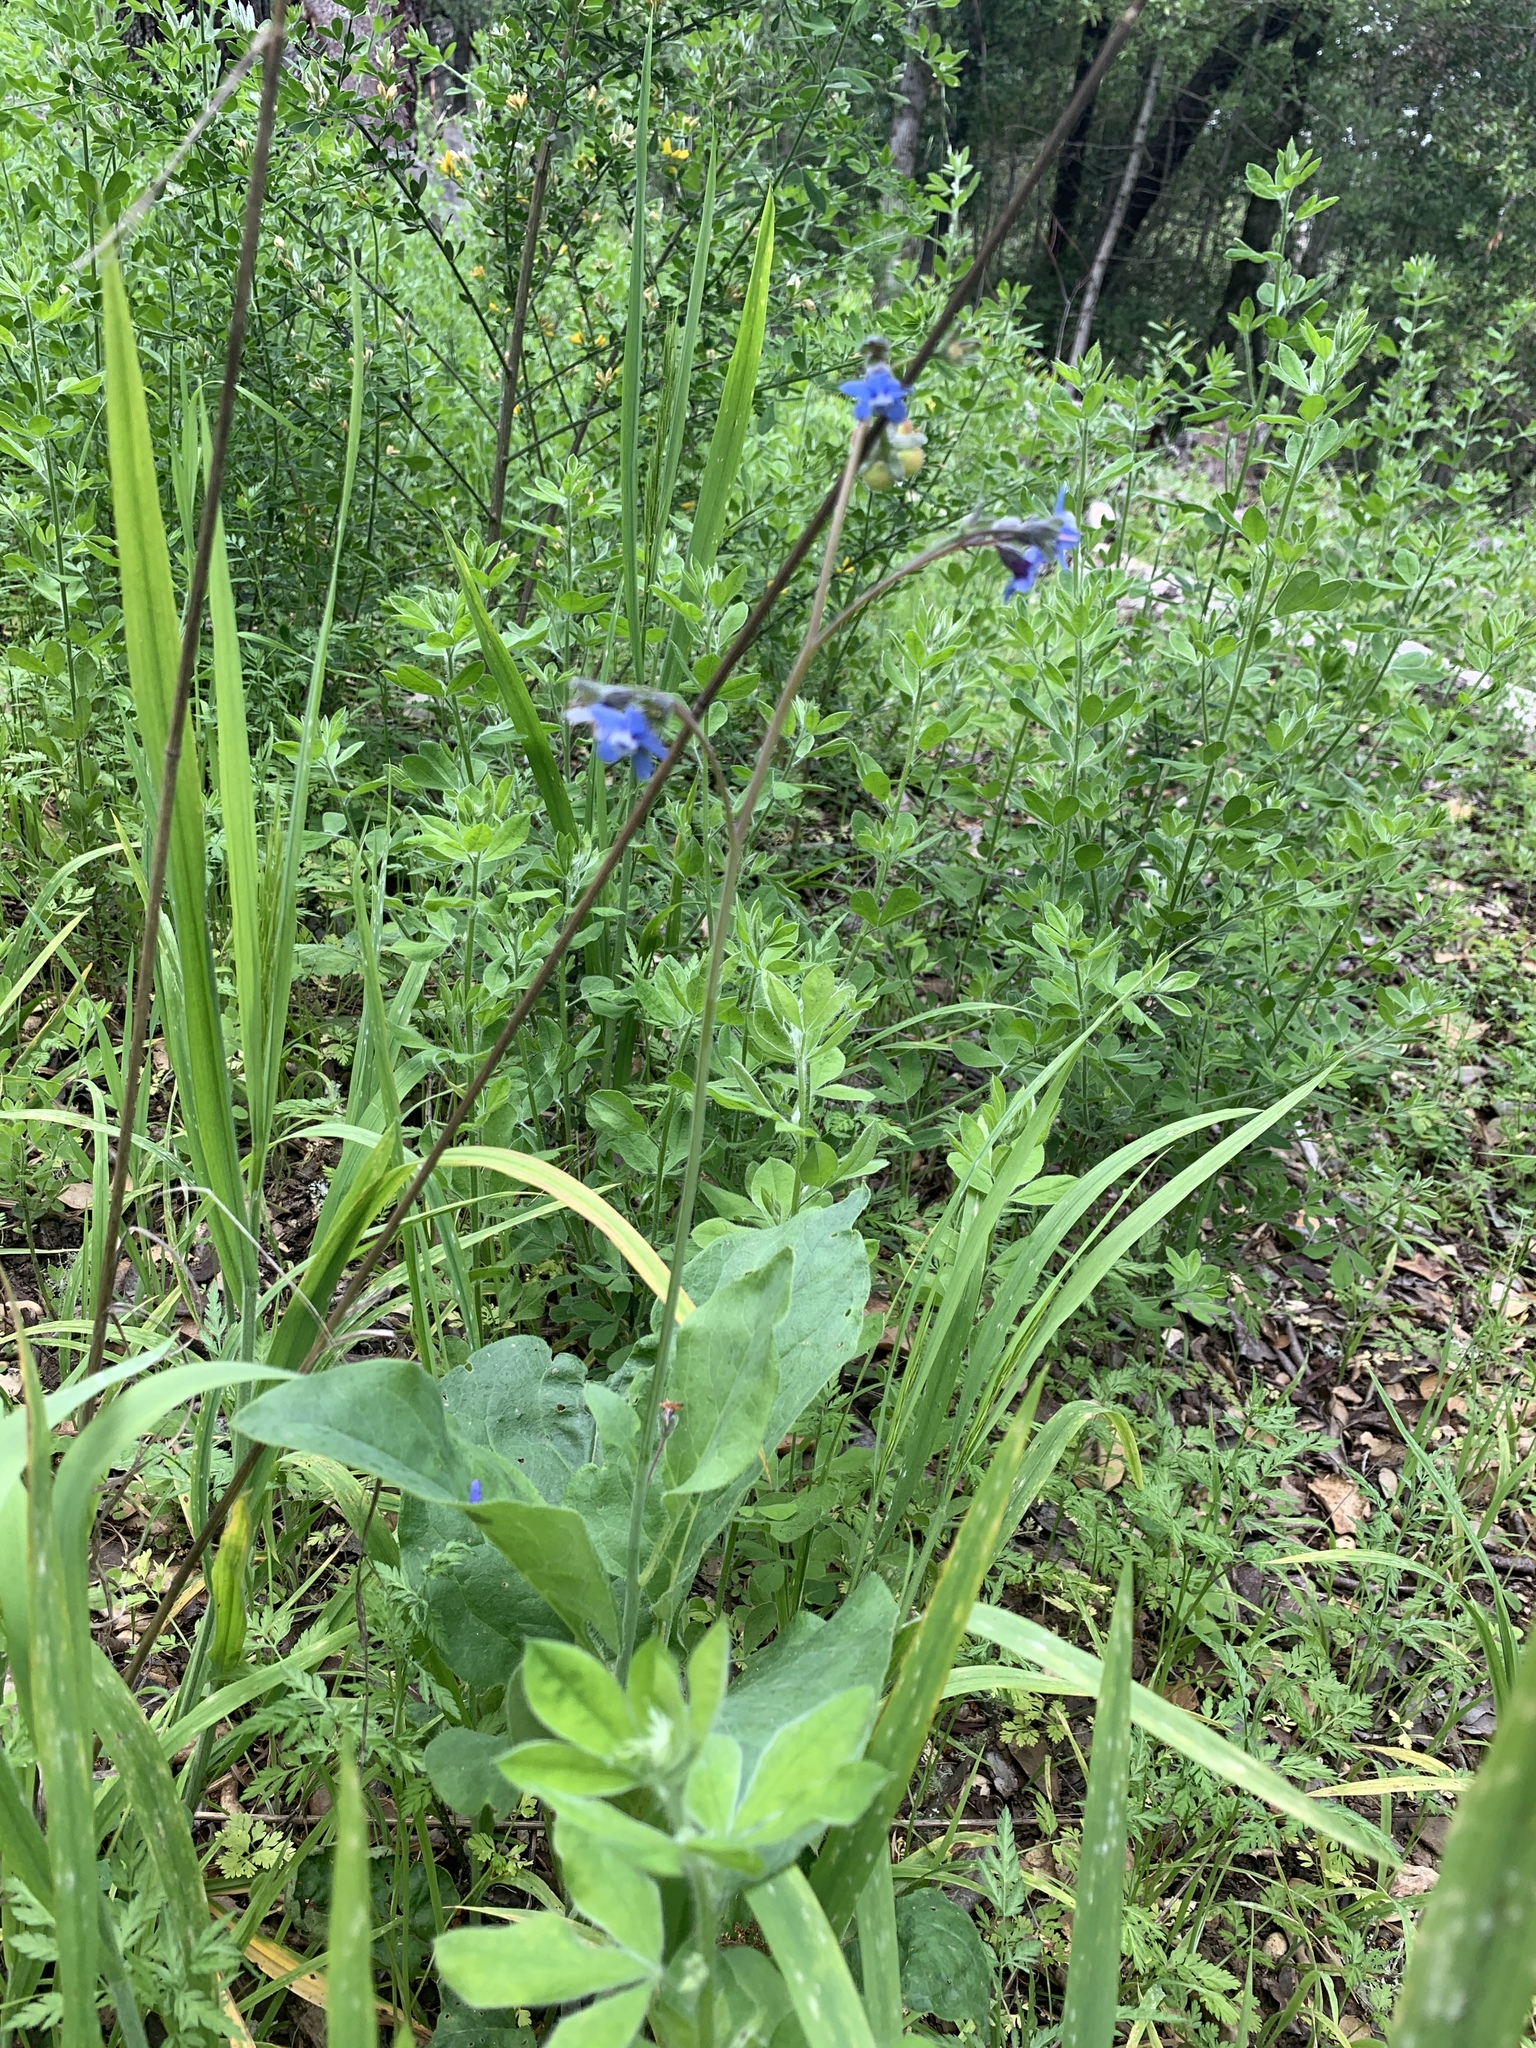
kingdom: Plantae
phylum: Tracheophyta
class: Magnoliopsida
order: Boraginales
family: Boraginaceae
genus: Adelinia
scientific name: Adelinia grande
